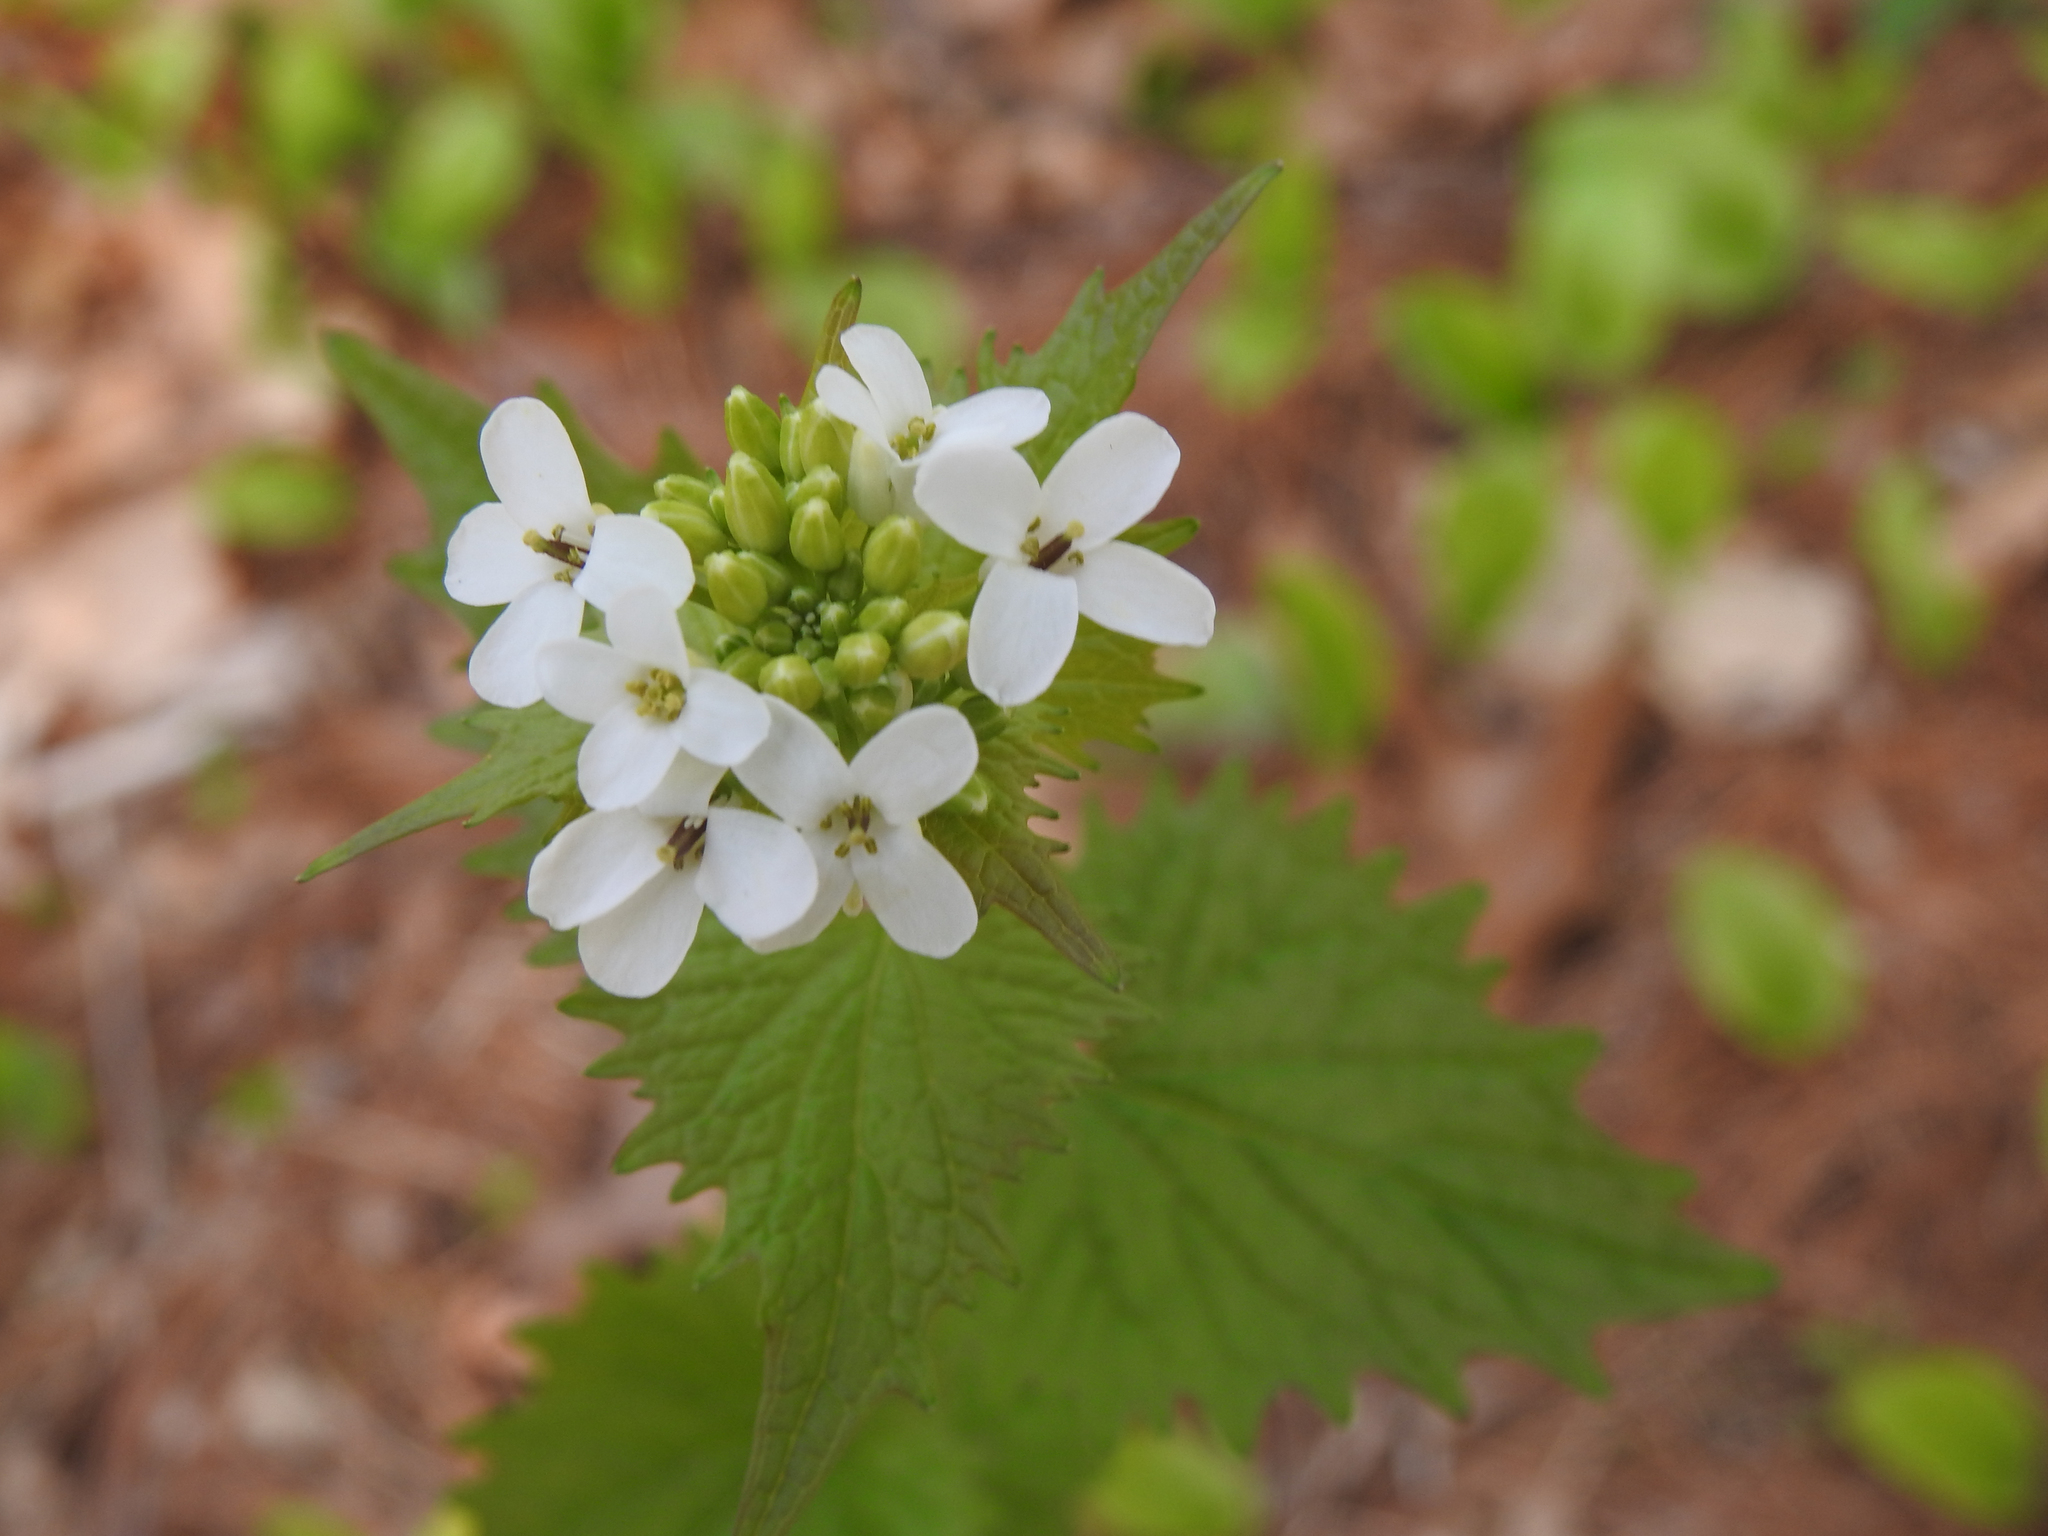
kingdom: Plantae
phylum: Tracheophyta
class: Magnoliopsida
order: Brassicales
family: Brassicaceae
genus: Alliaria
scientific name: Alliaria petiolata
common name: Garlic mustard
